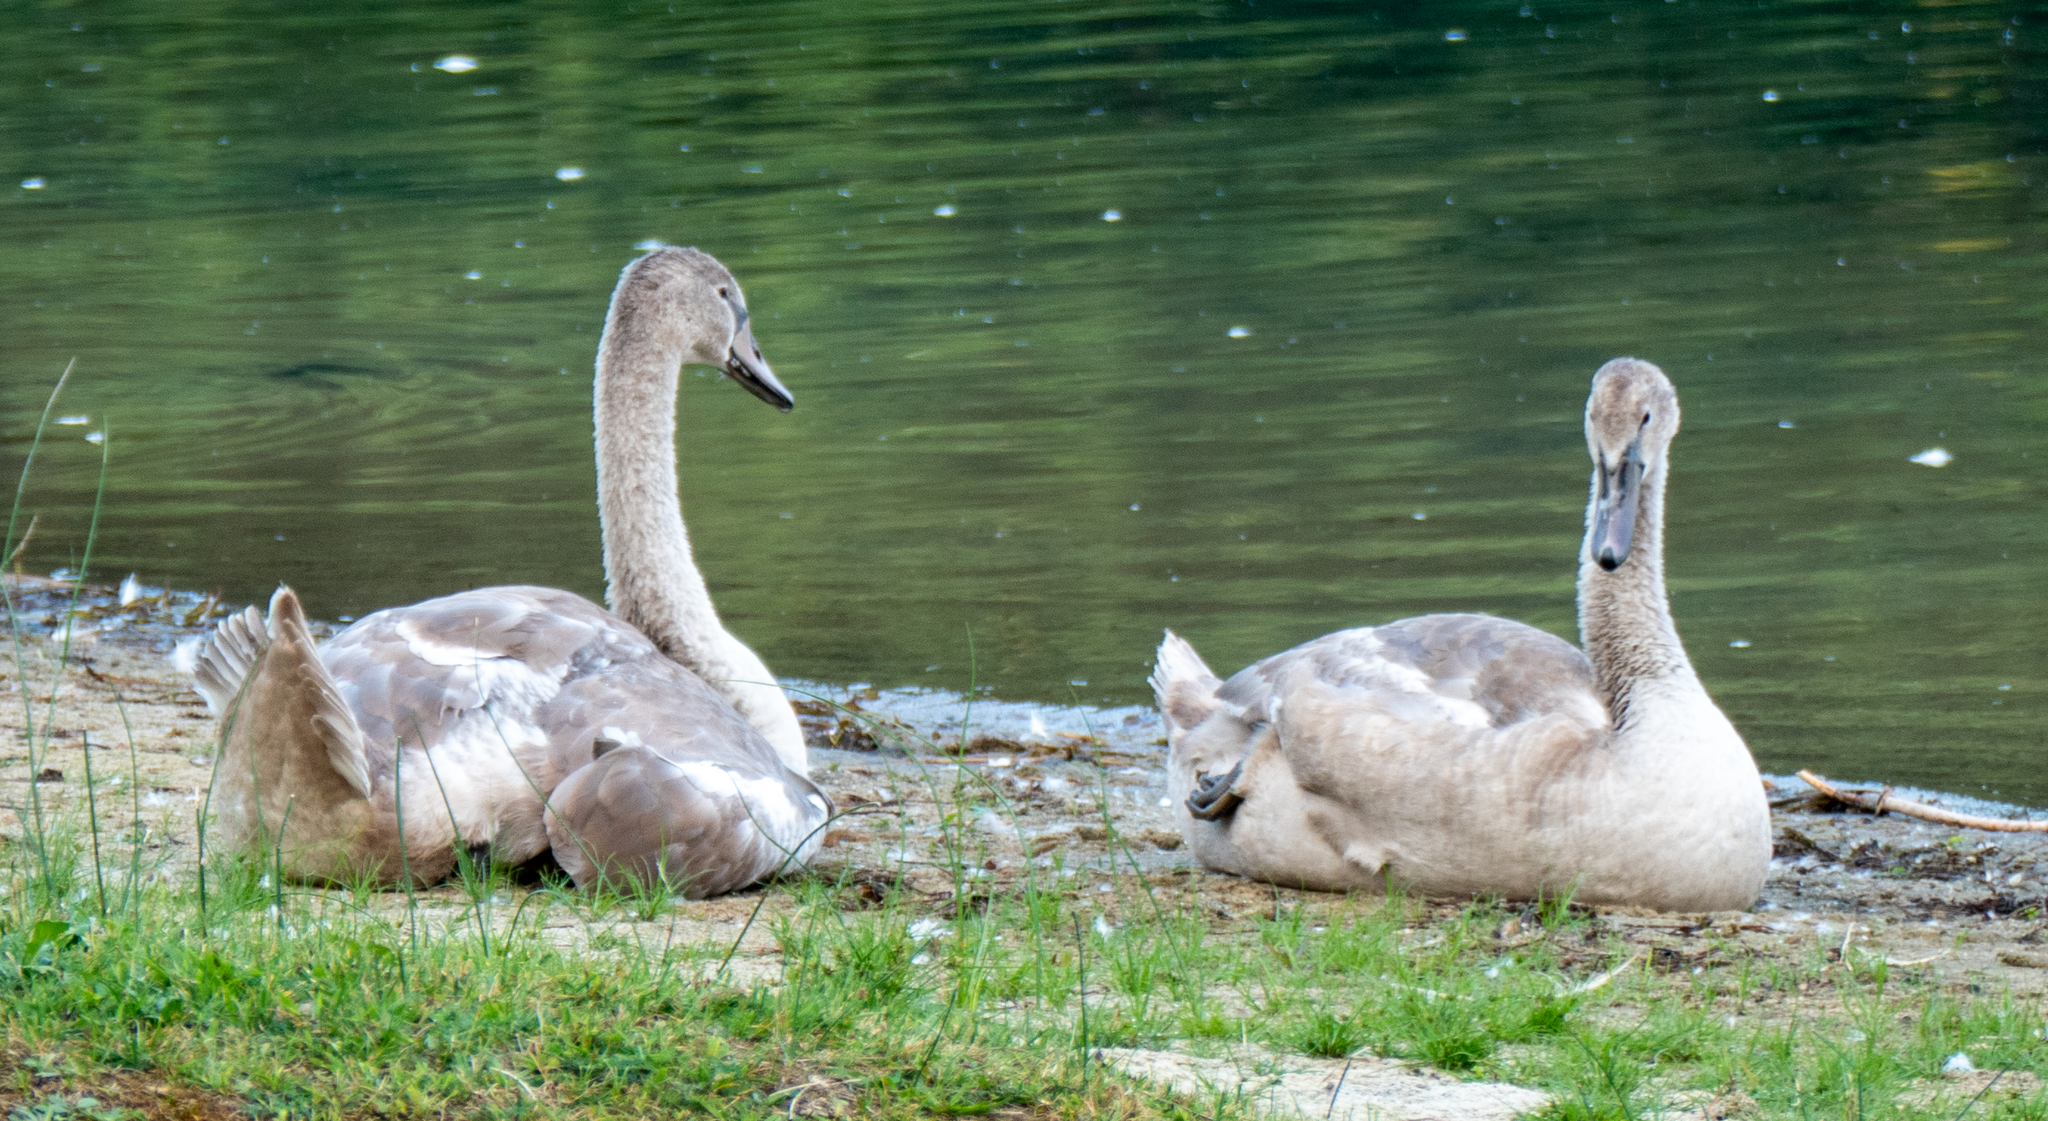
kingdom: Animalia
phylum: Chordata
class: Aves
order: Anseriformes
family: Anatidae
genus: Cygnus
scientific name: Cygnus olor
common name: Mute swan
